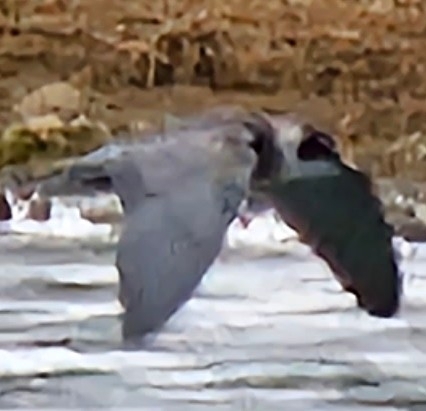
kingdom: Animalia
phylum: Chordata
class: Aves
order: Charadriiformes
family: Laridae
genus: Chlidonias
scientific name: Chlidonias niger
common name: Black tern
